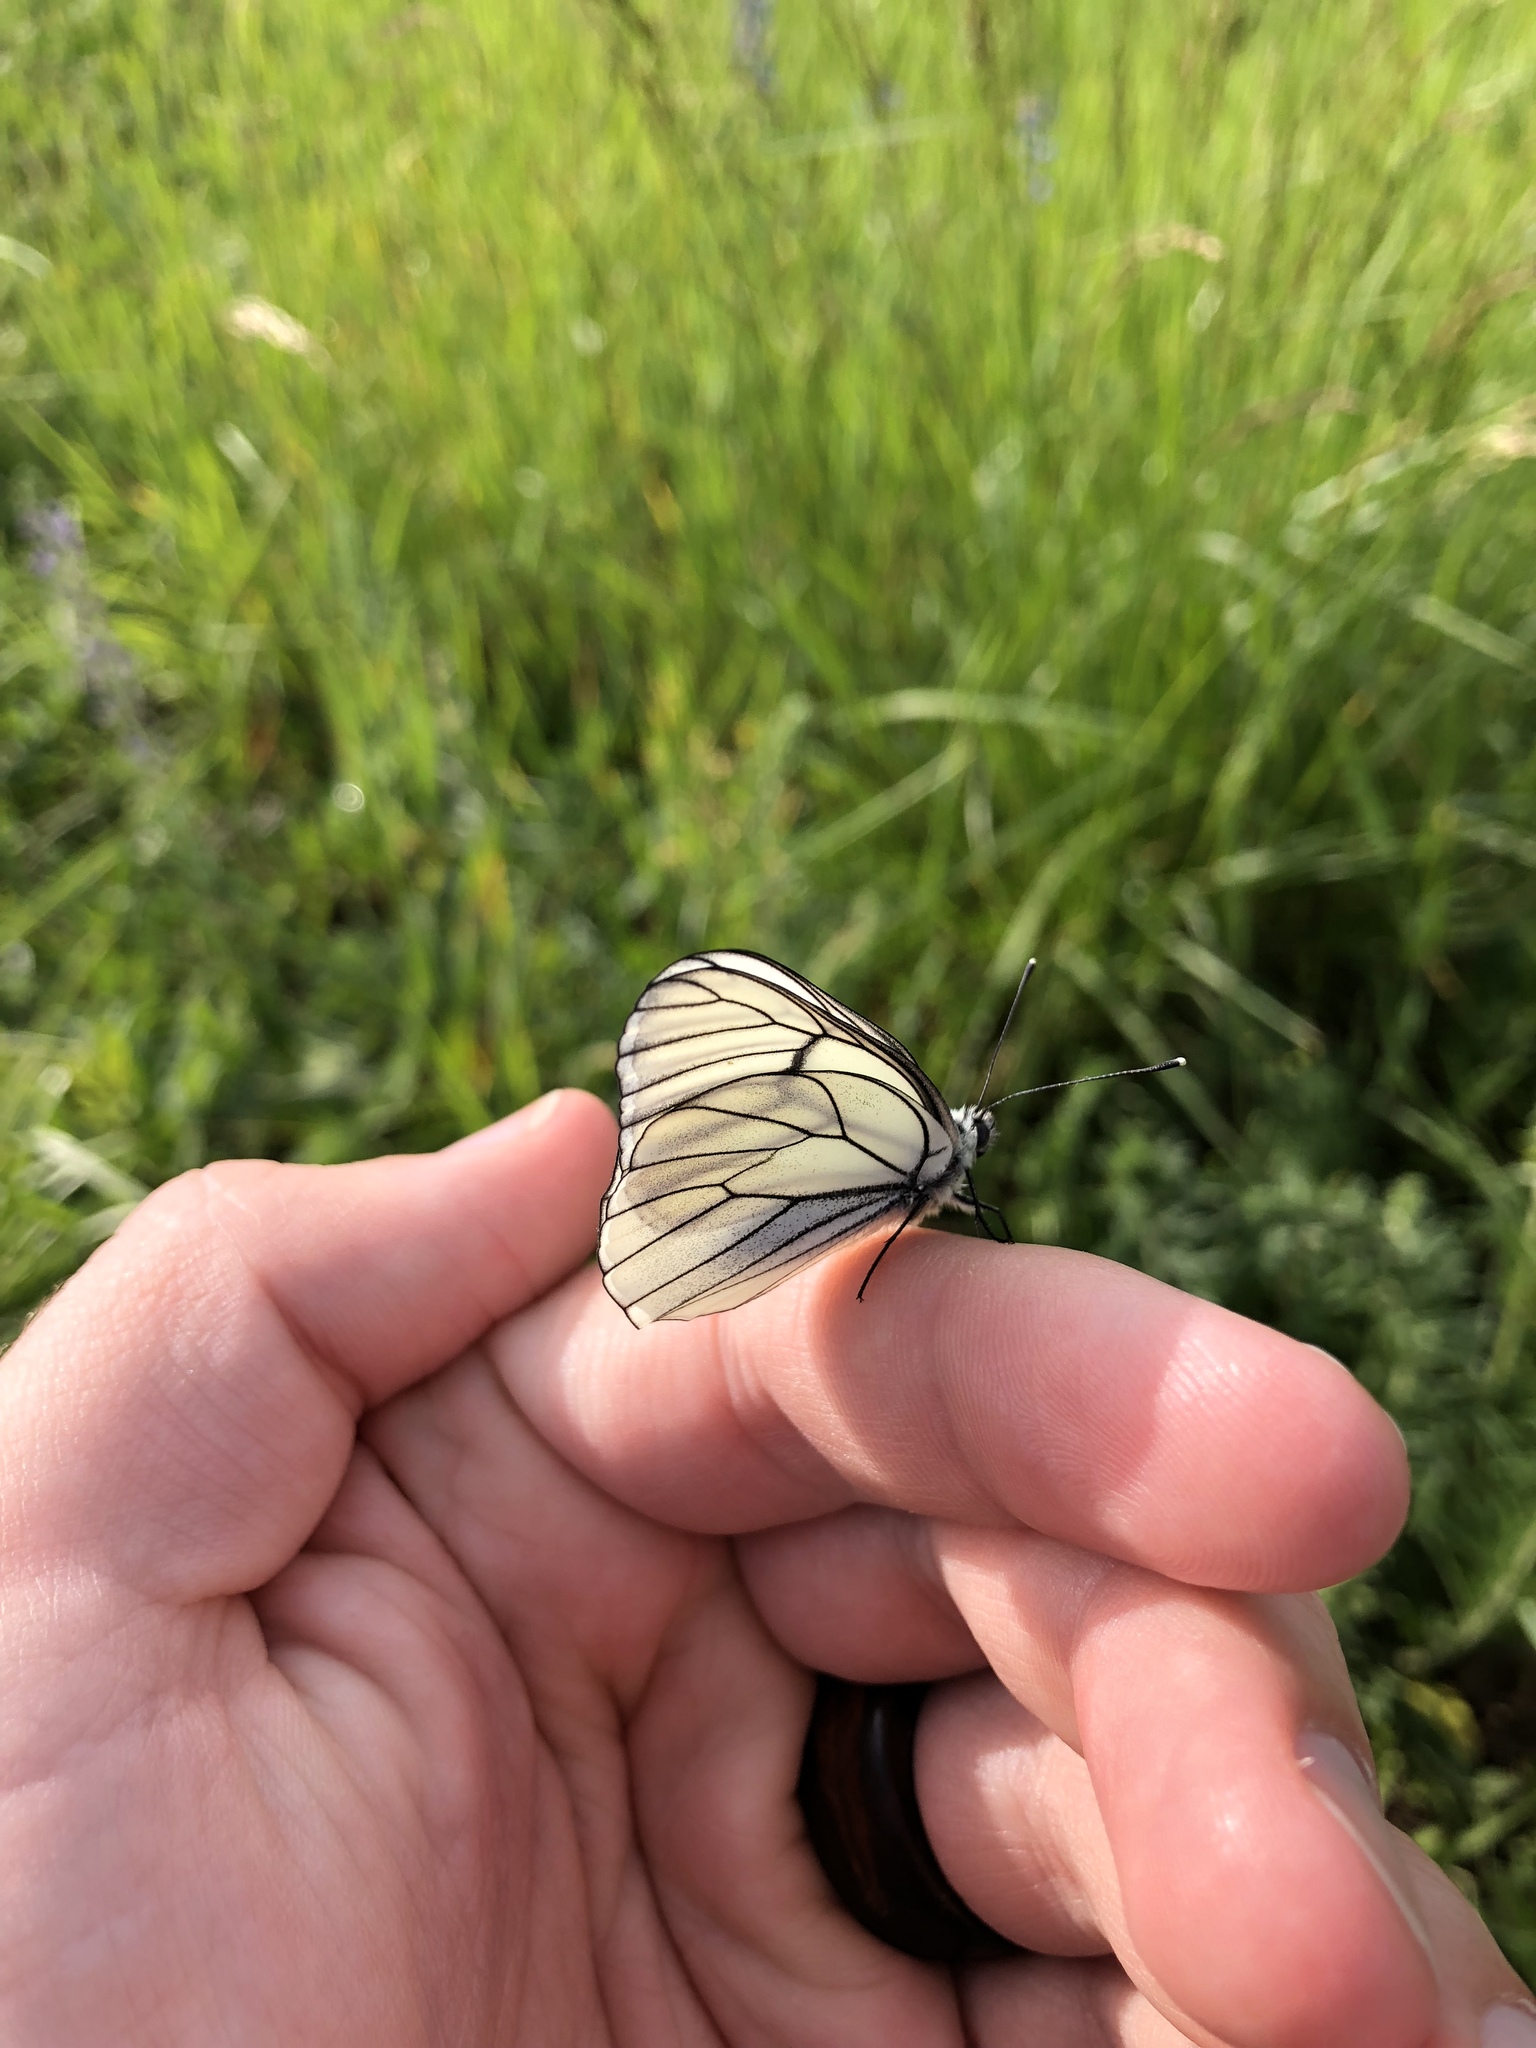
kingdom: Animalia
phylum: Arthropoda
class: Insecta
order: Lepidoptera
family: Pieridae
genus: Aporia
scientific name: Aporia crataegi
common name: Black-veined white
